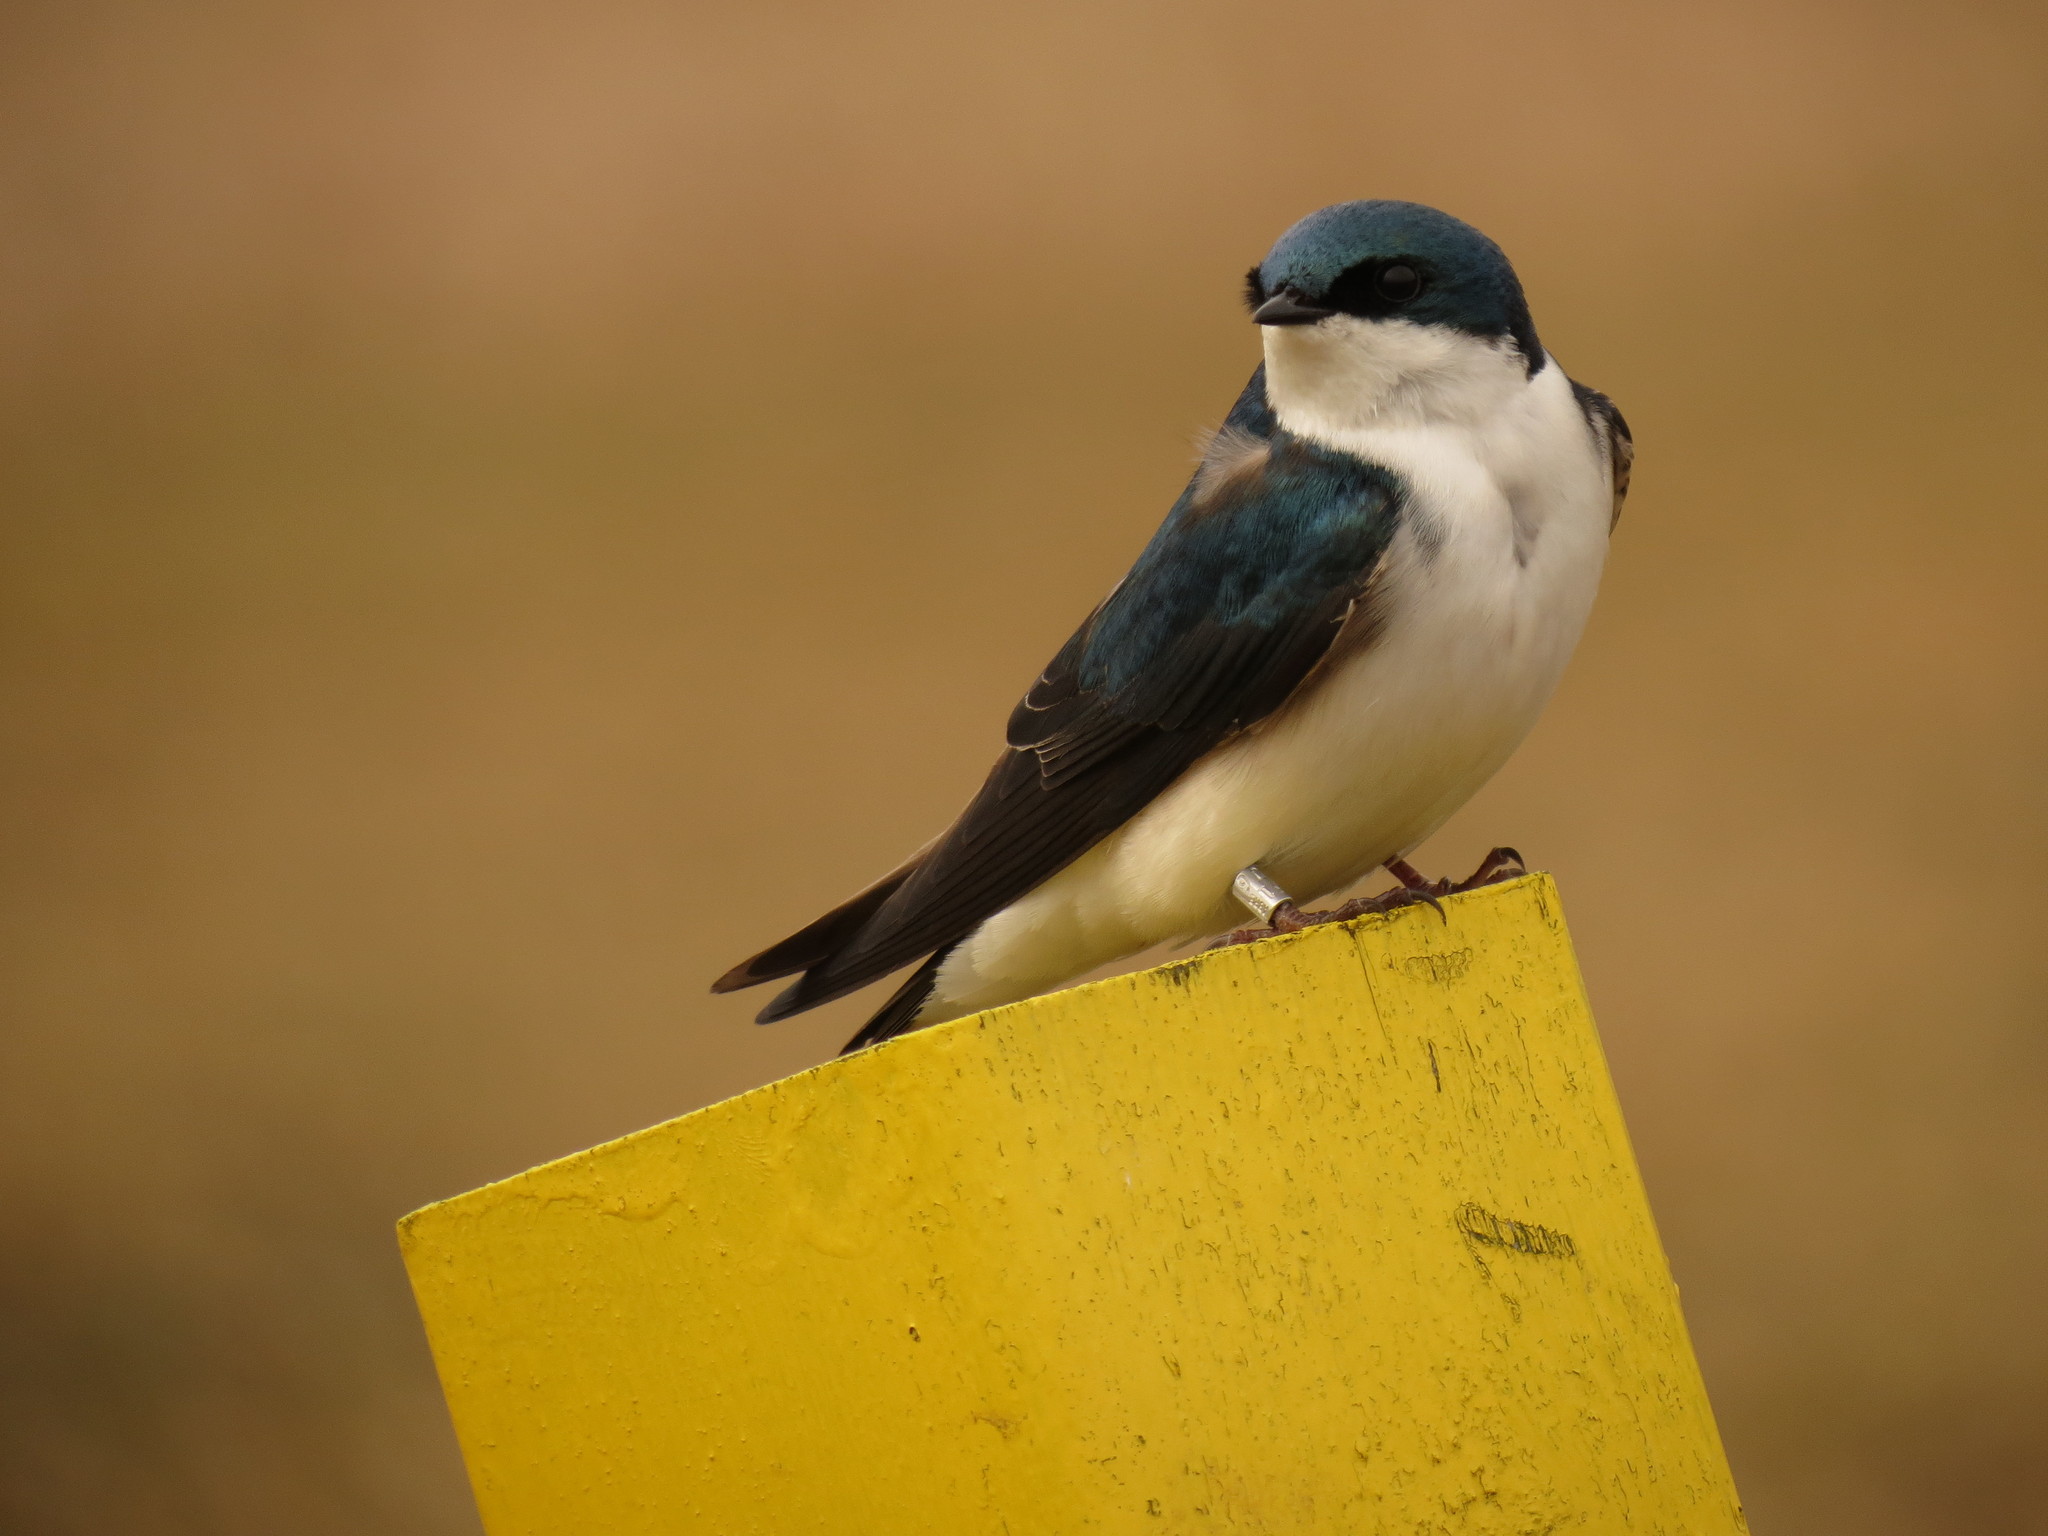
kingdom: Animalia
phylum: Chordata
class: Aves
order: Passeriformes
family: Hirundinidae
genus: Tachycineta
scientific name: Tachycineta bicolor
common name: Tree swallow
